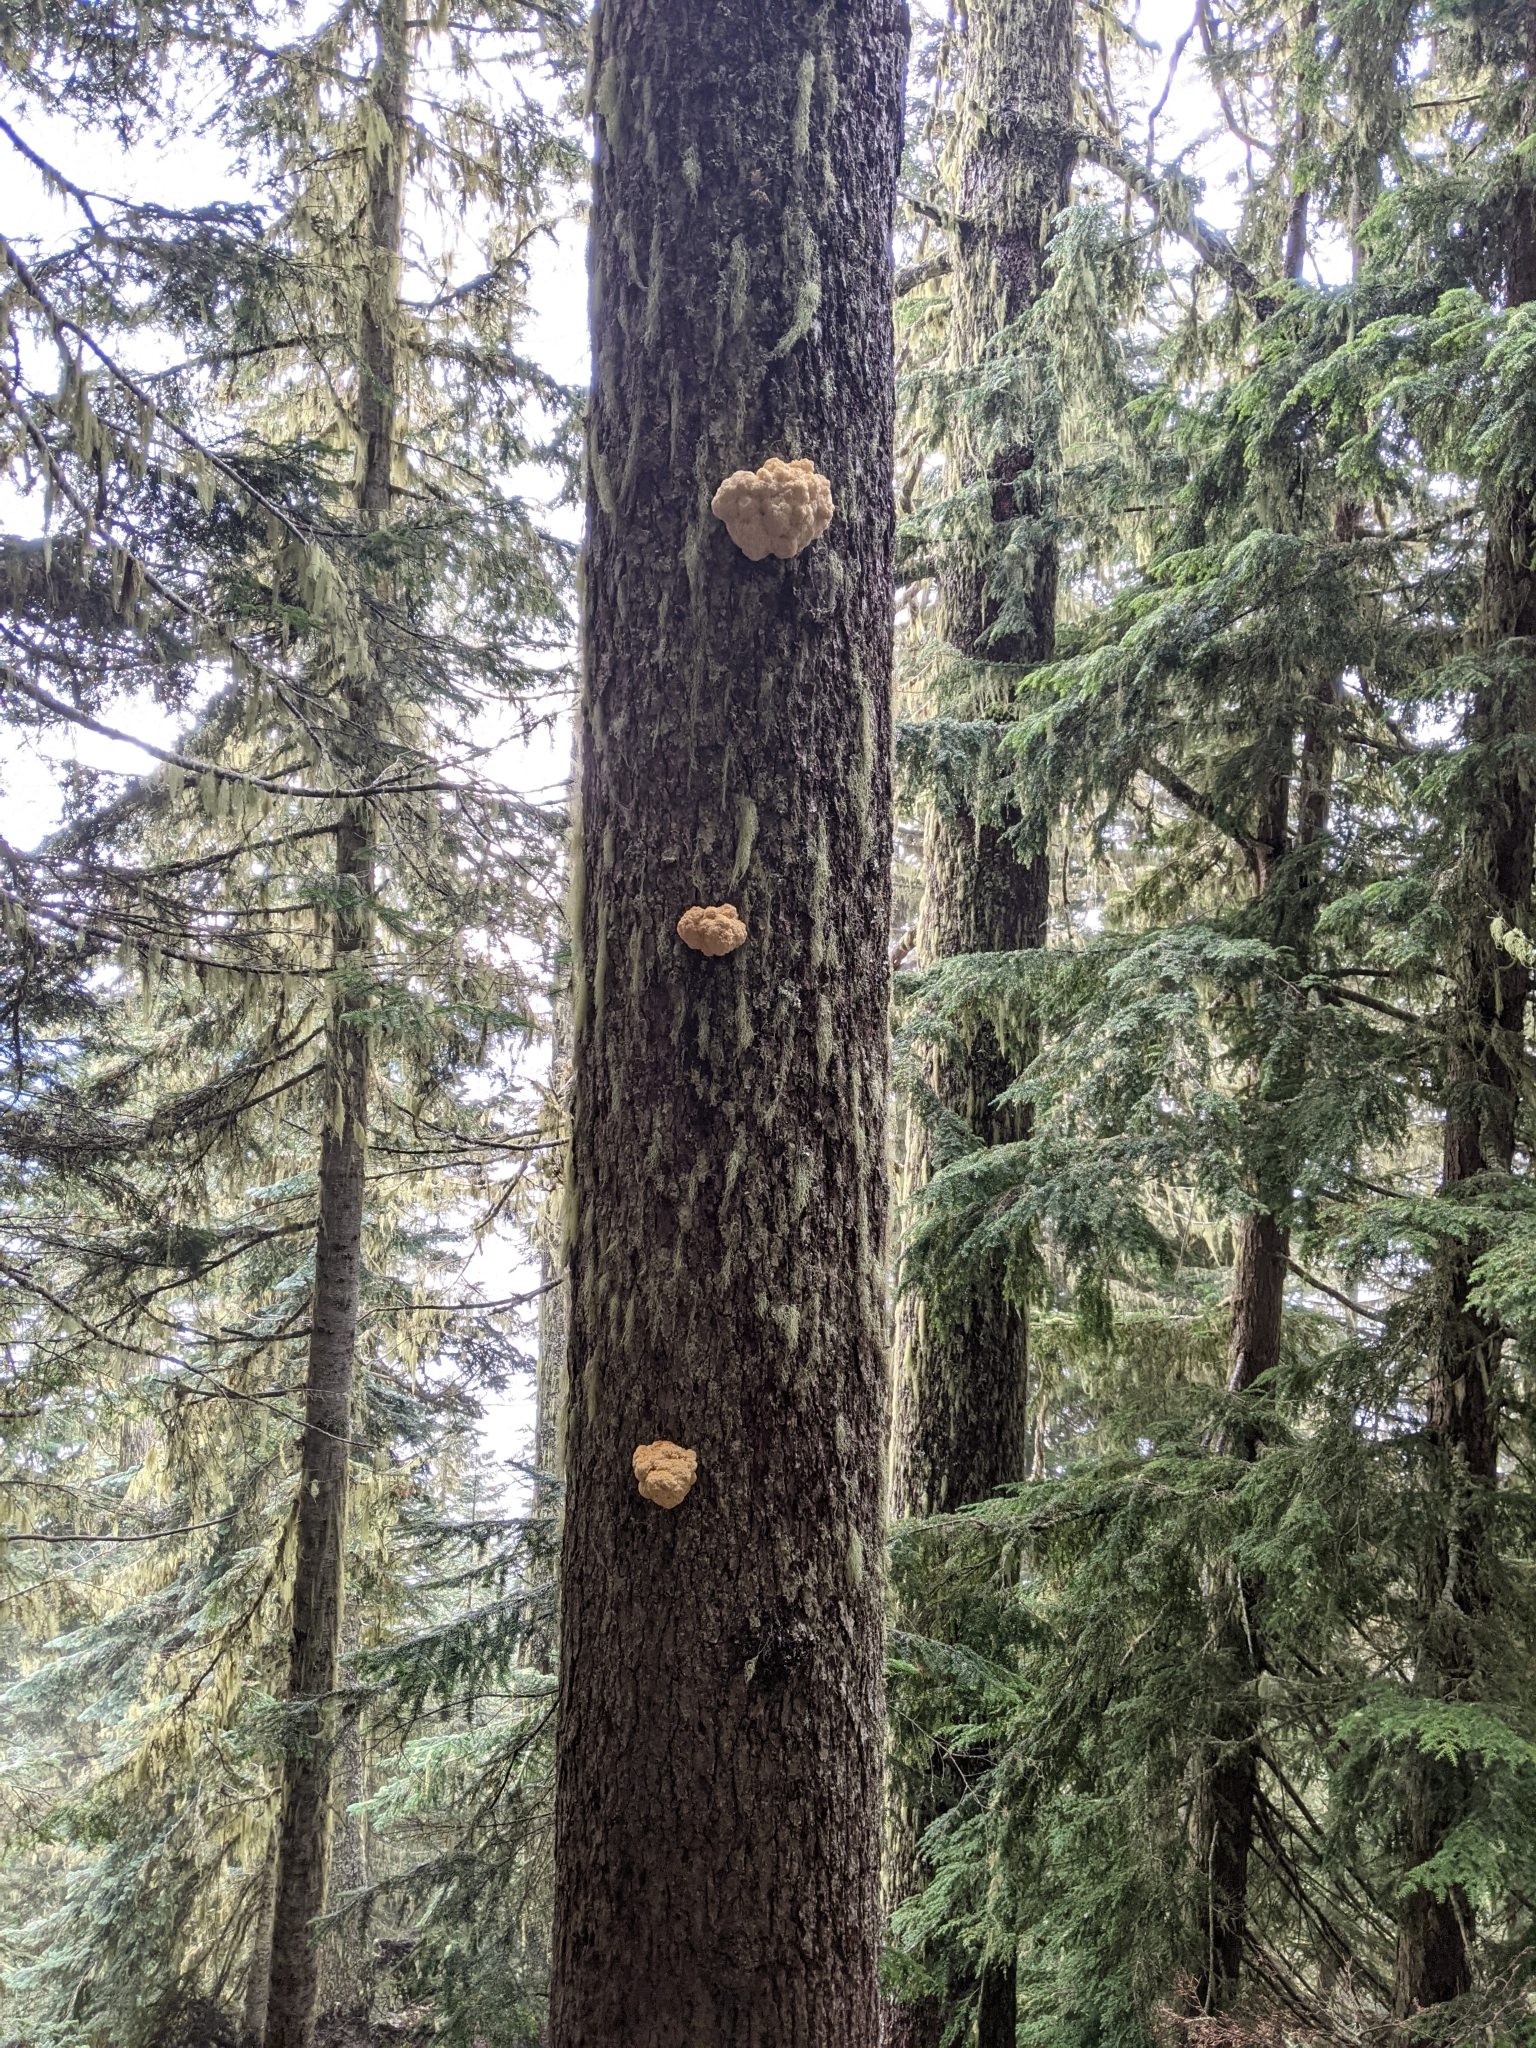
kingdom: Fungi
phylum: Basidiomycota
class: Agaricomycetes
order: Russulales
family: Hericiaceae
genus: Hericium
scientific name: Hericium abietis
